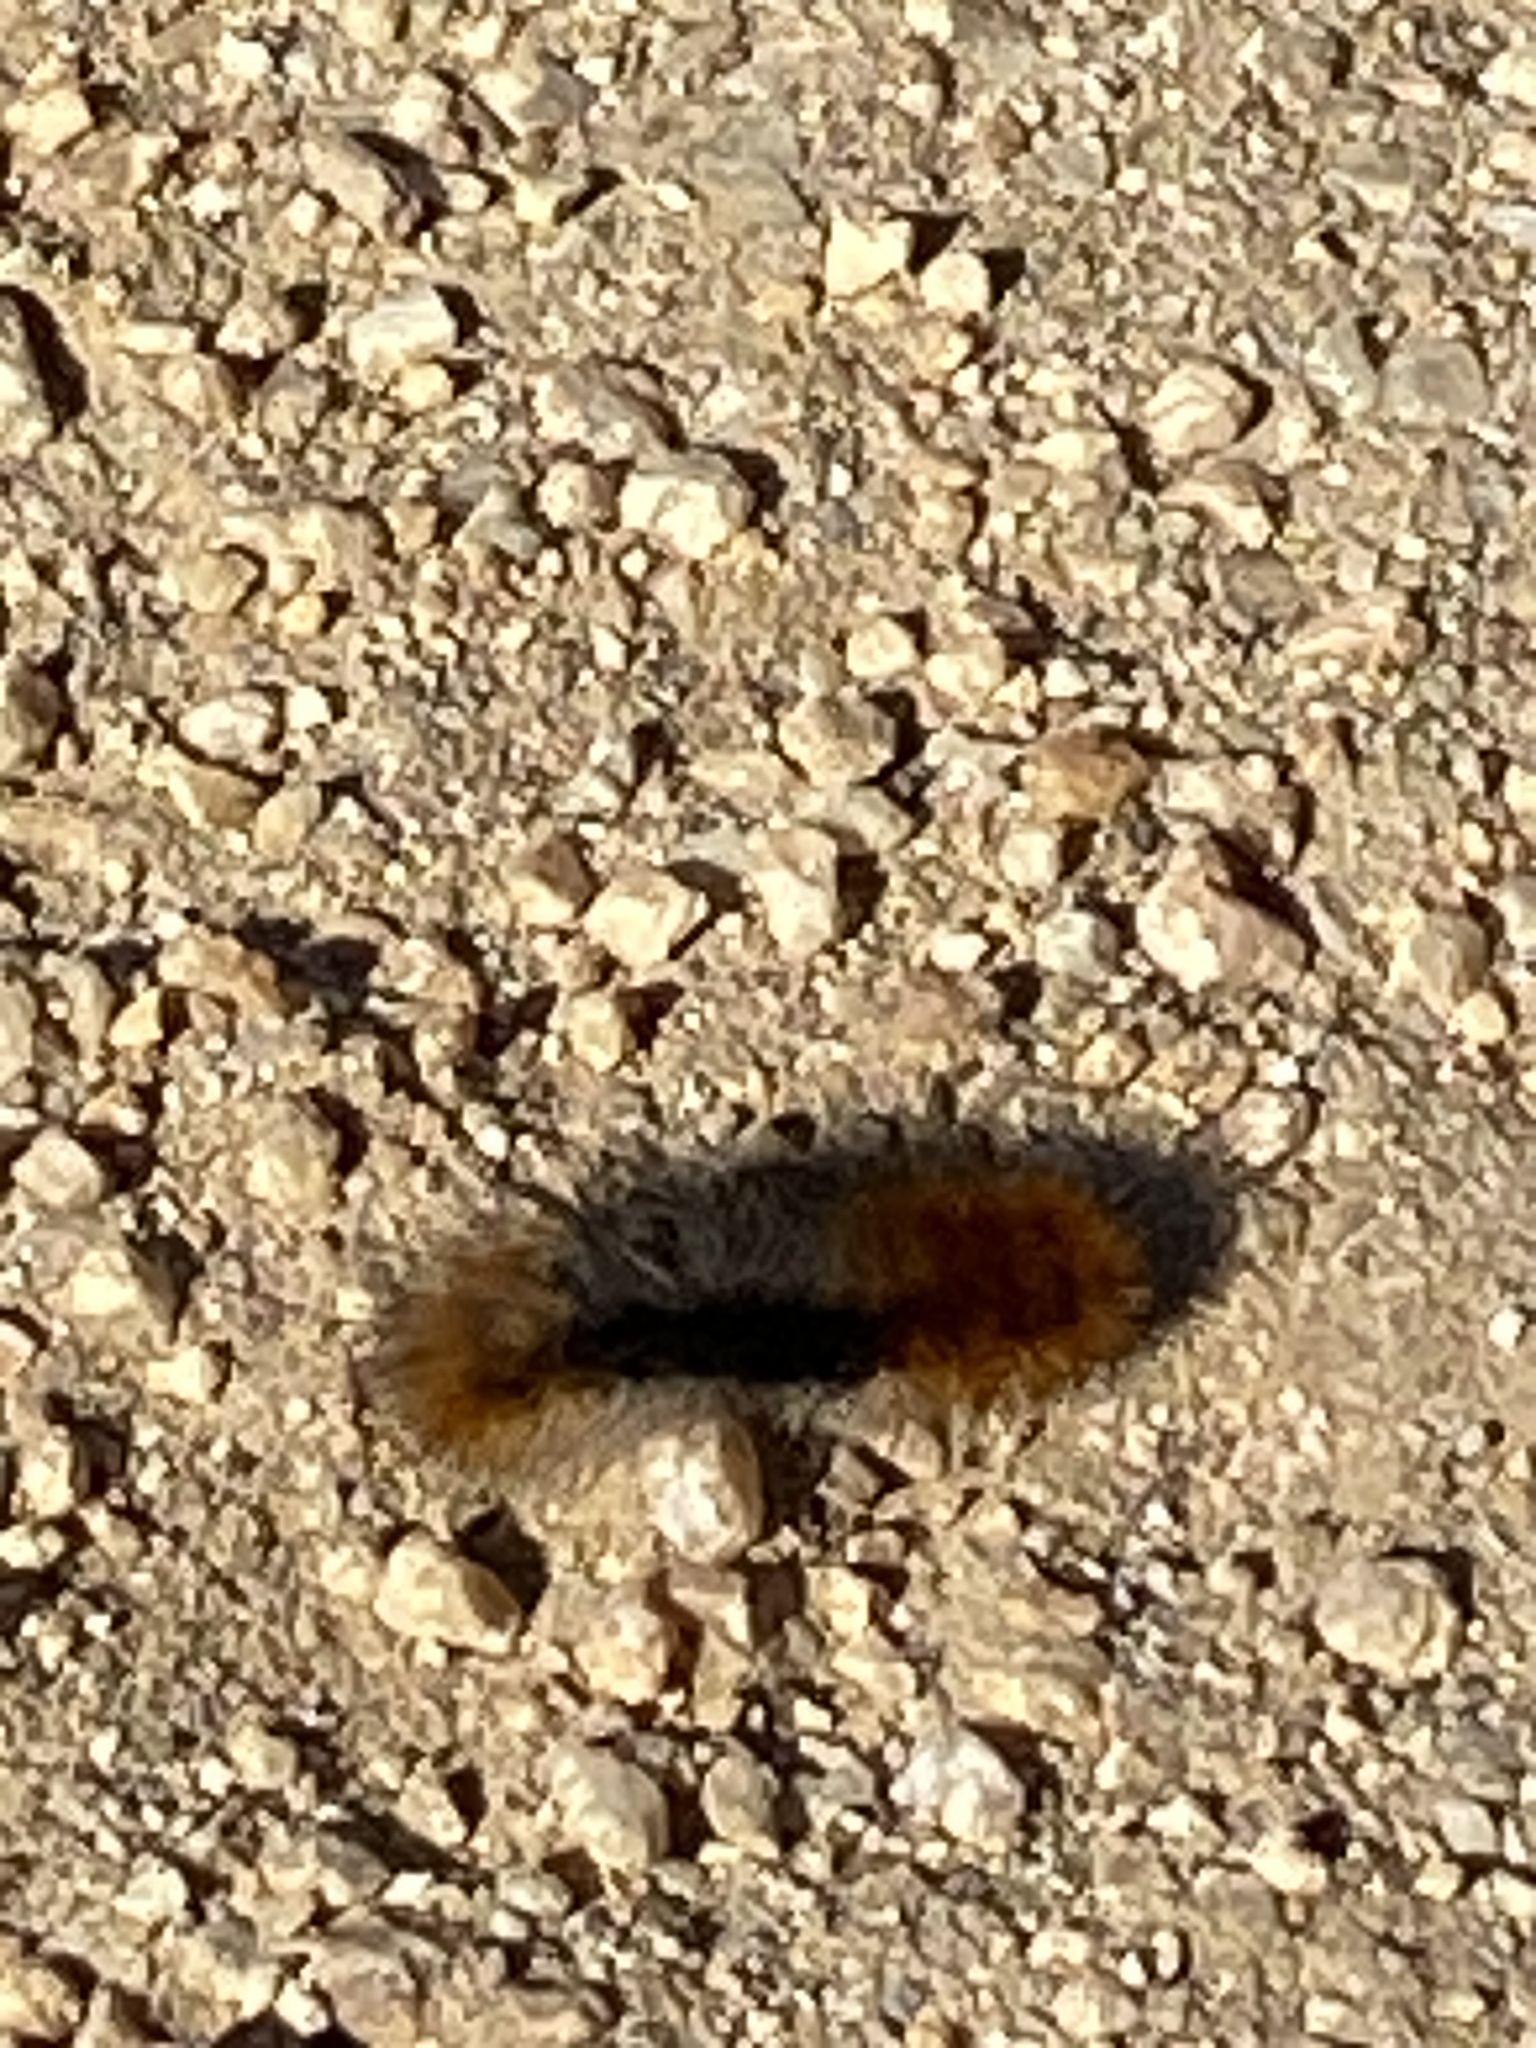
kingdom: Animalia
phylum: Arthropoda
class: Insecta
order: Lepidoptera
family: Erebidae
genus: Arctia
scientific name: Arctia tigrina
